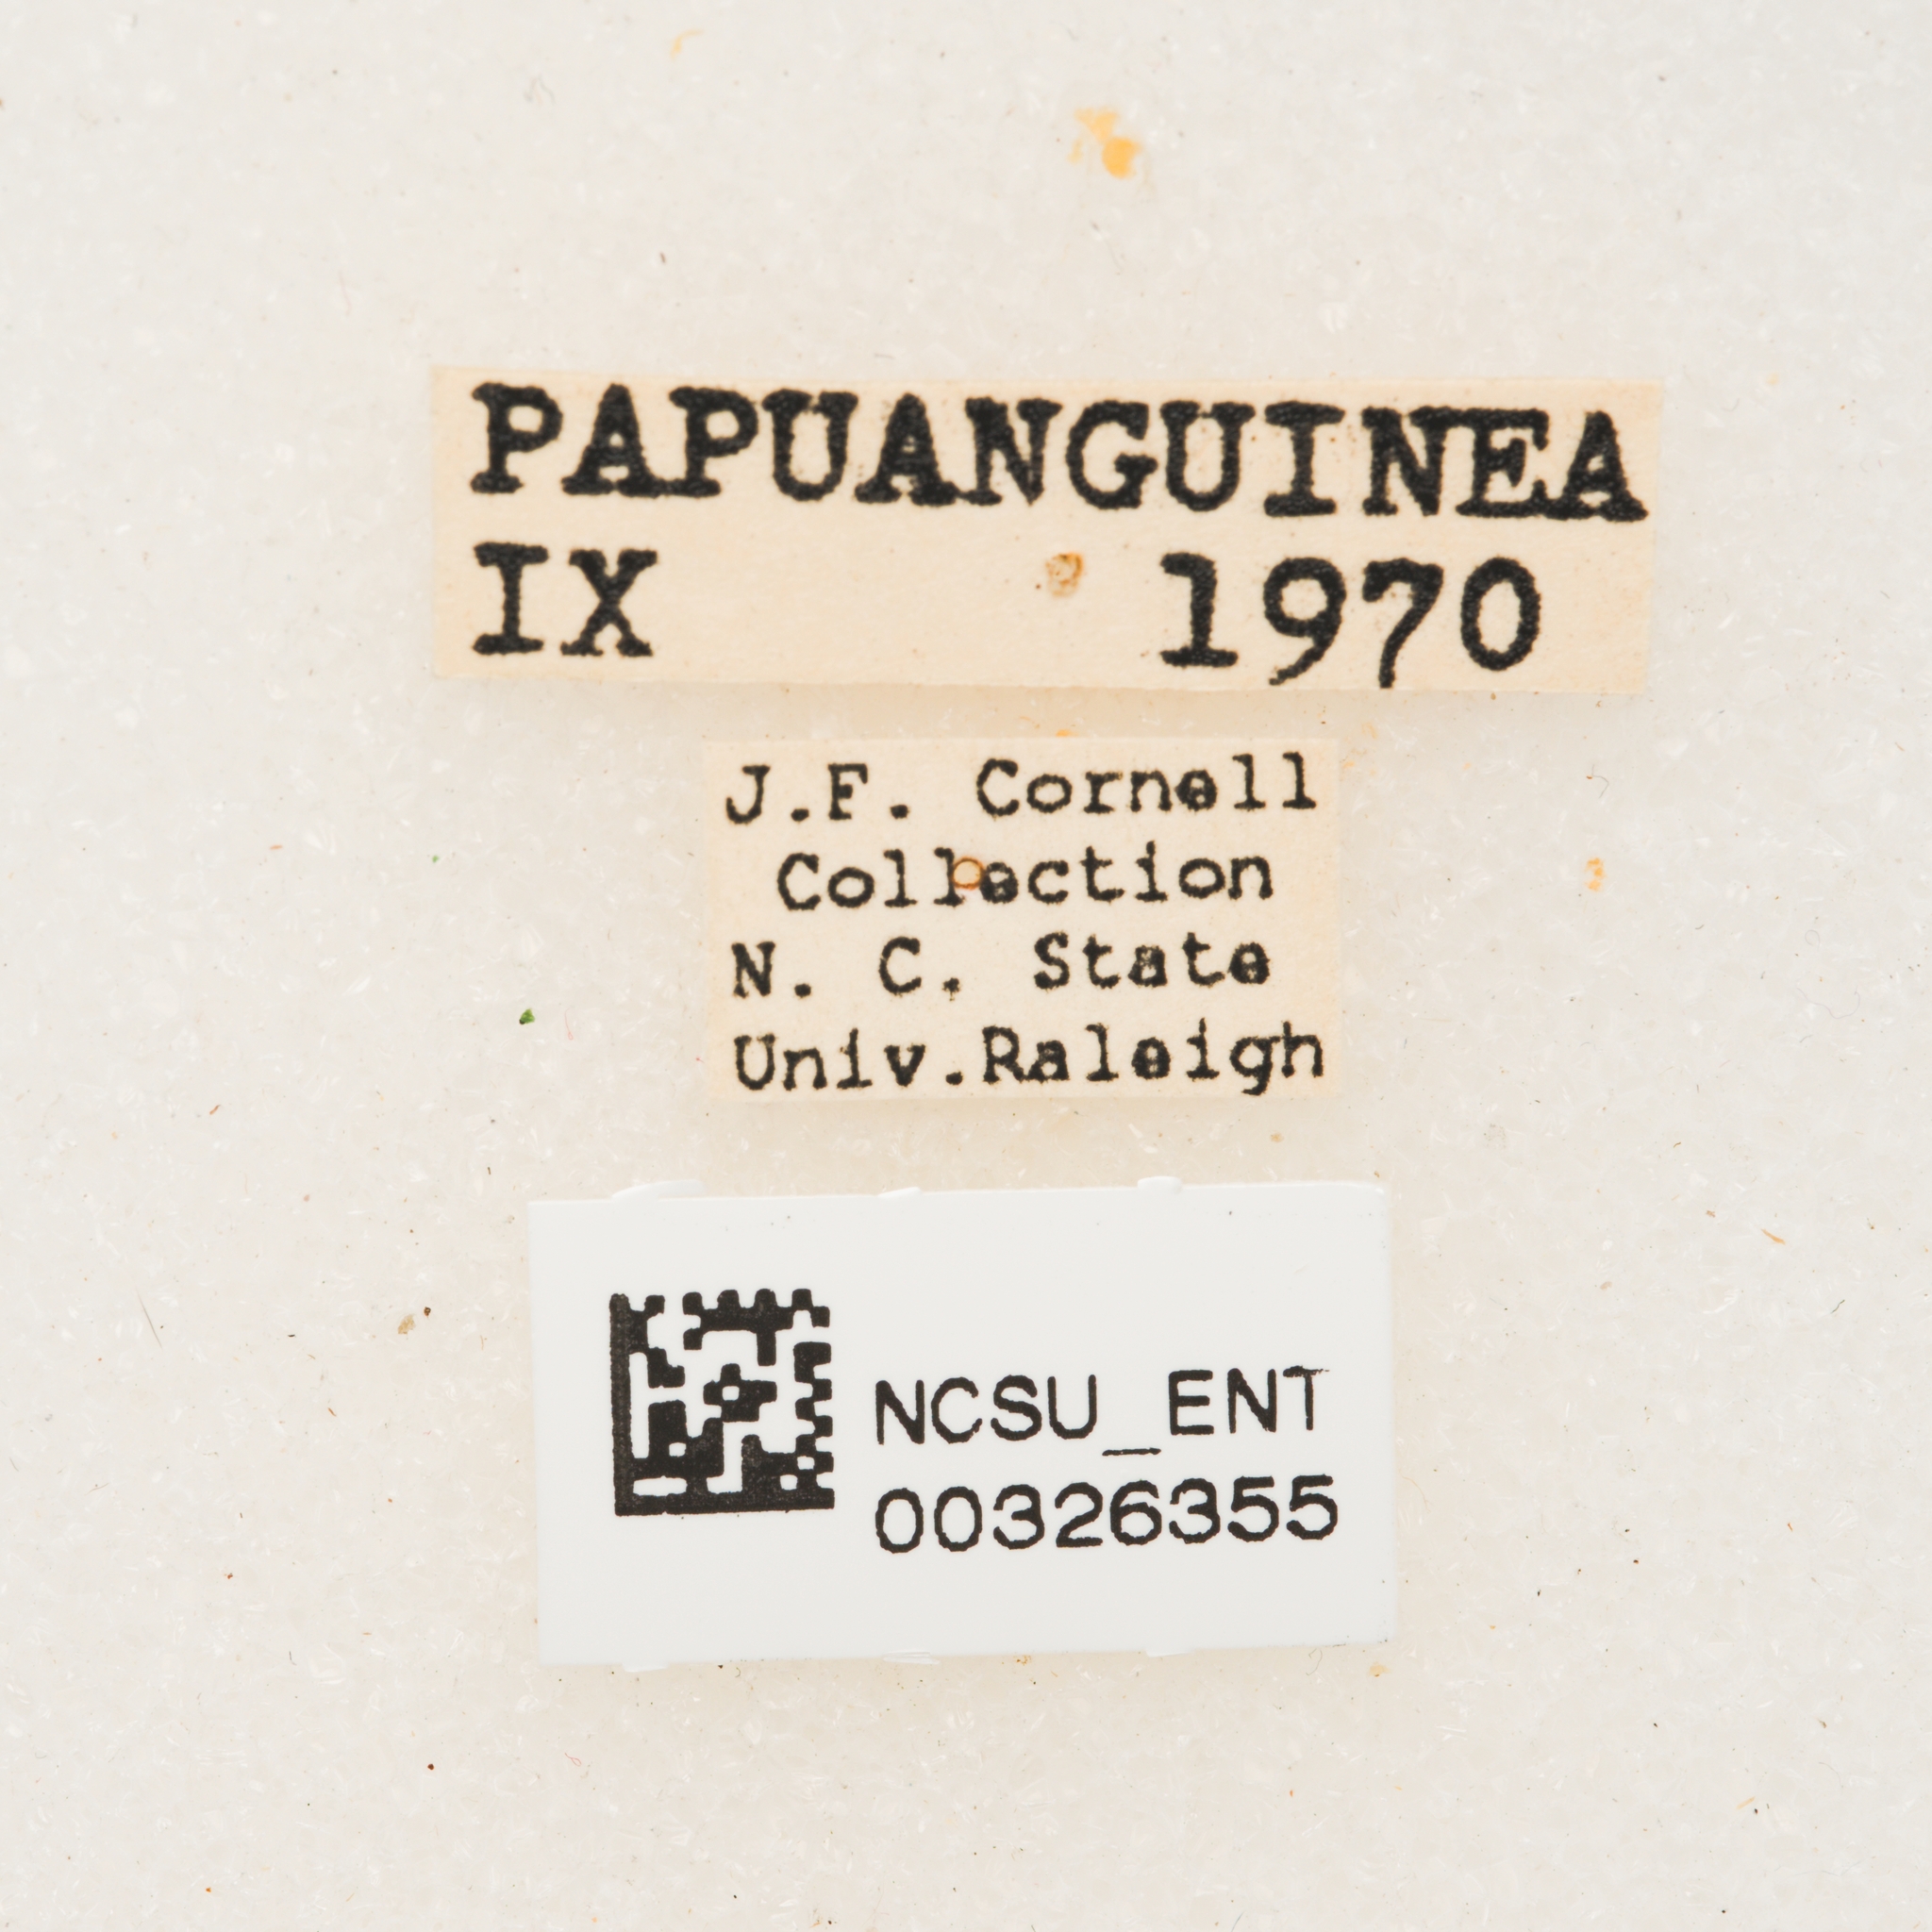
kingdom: Animalia
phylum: Arthropoda
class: Insecta
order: Coleoptera
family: Curculionidae
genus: Eupholus
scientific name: Eupholus schoenherri
